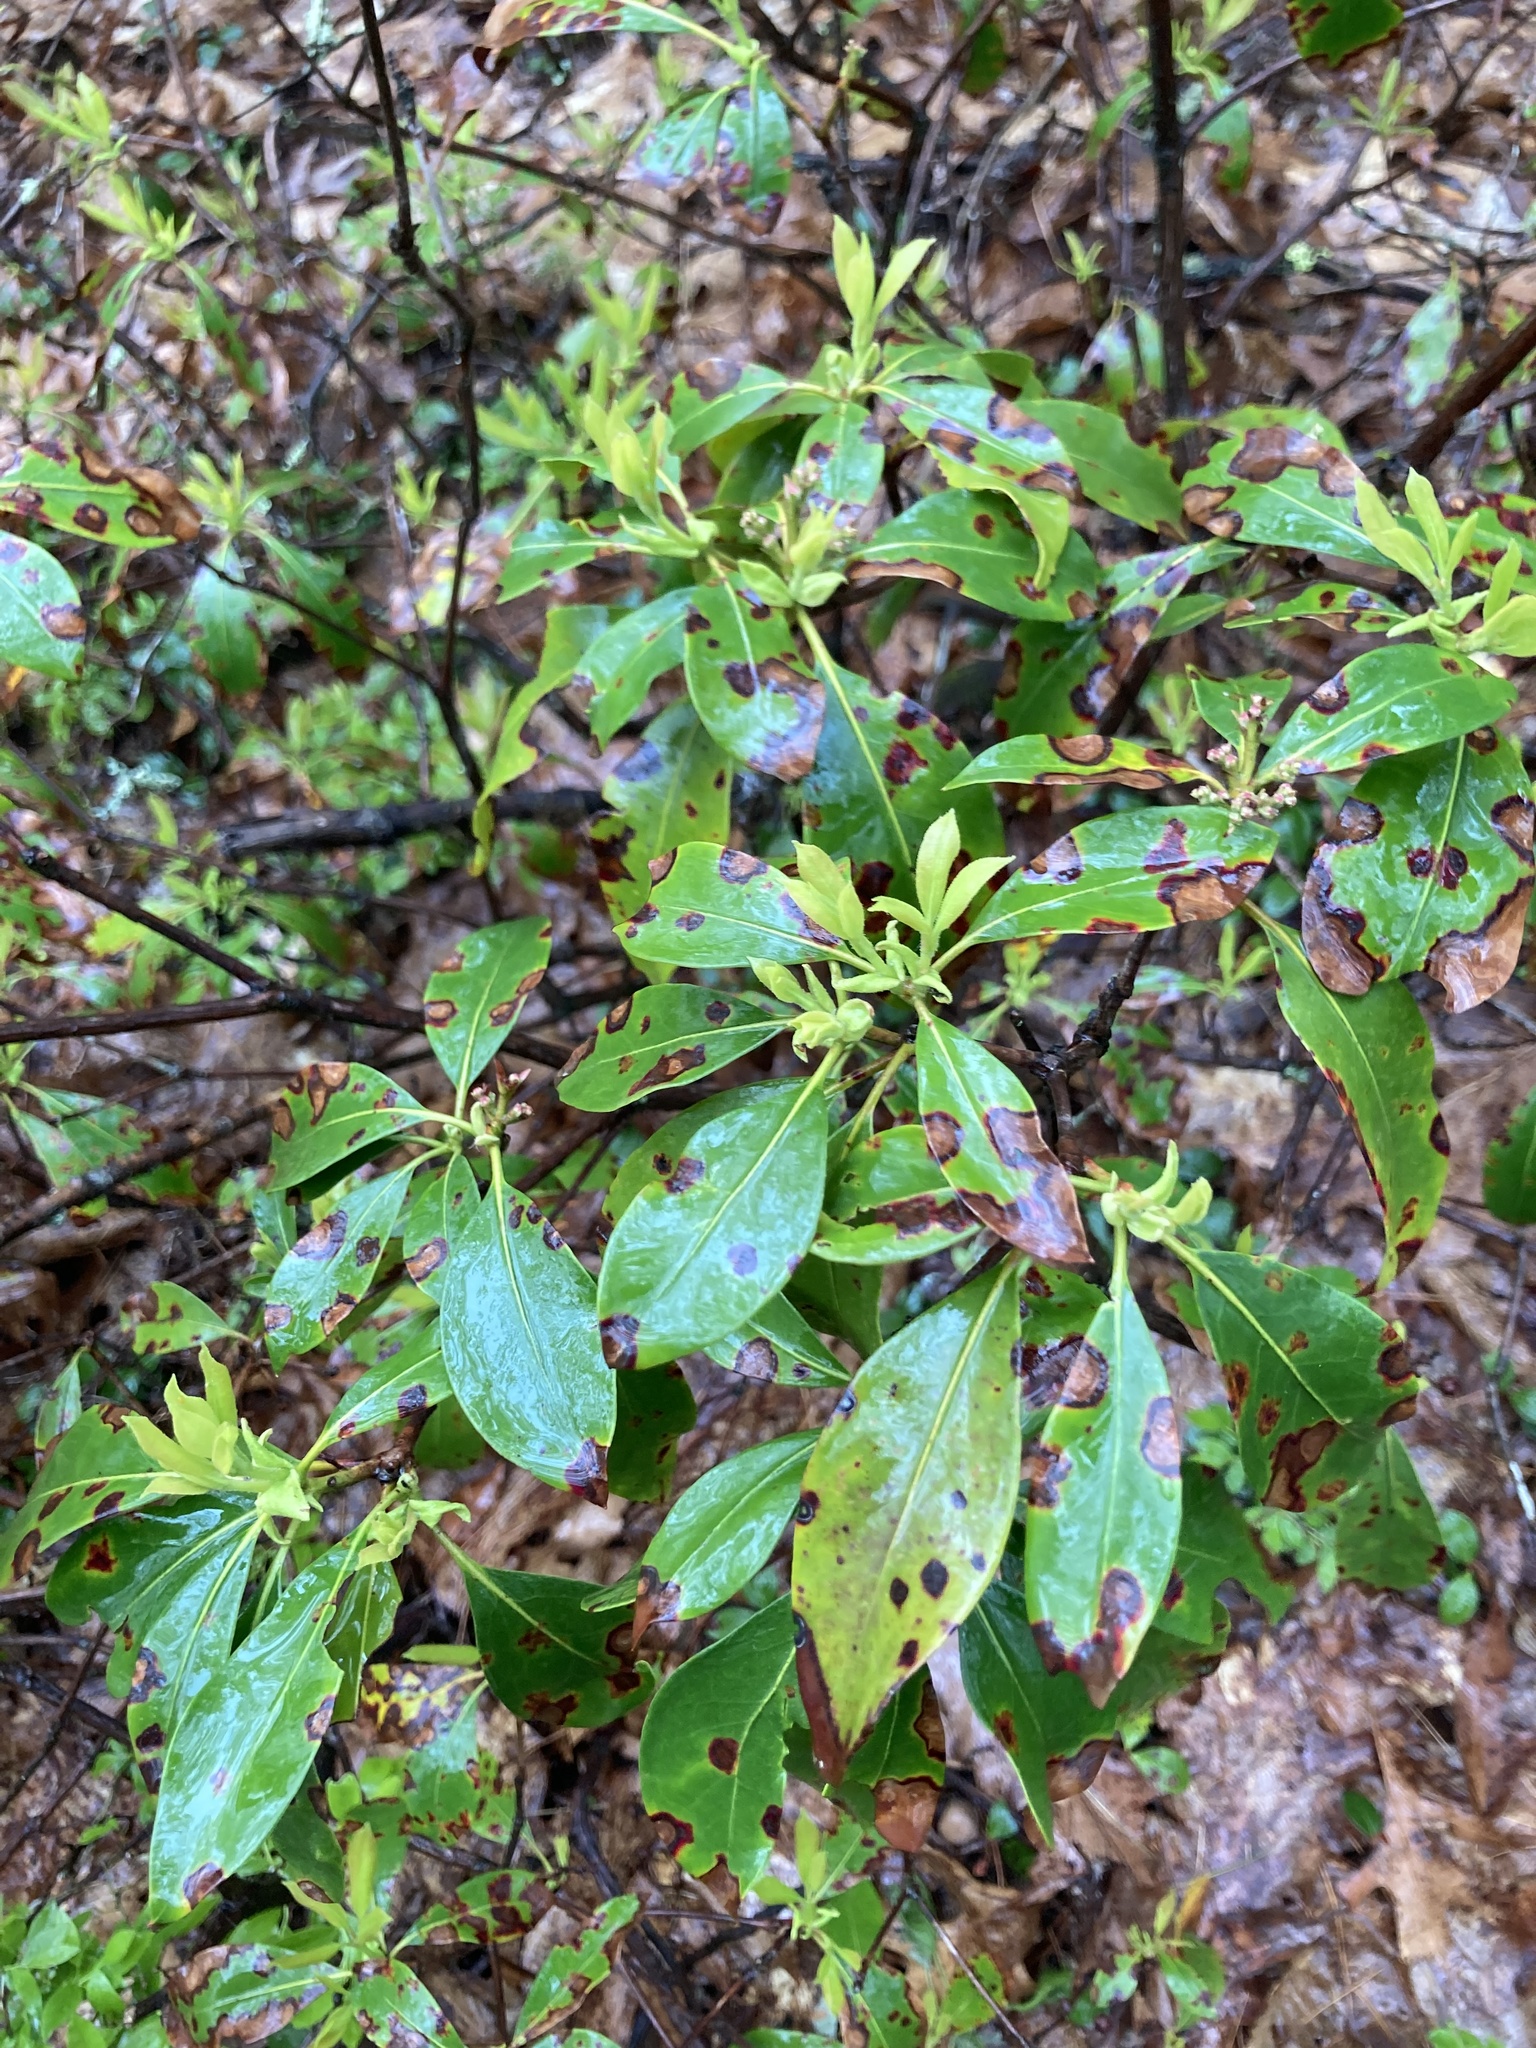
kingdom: Plantae
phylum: Tracheophyta
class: Magnoliopsida
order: Ericales
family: Ericaceae
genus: Kalmia
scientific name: Kalmia latifolia
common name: Mountain-laurel
